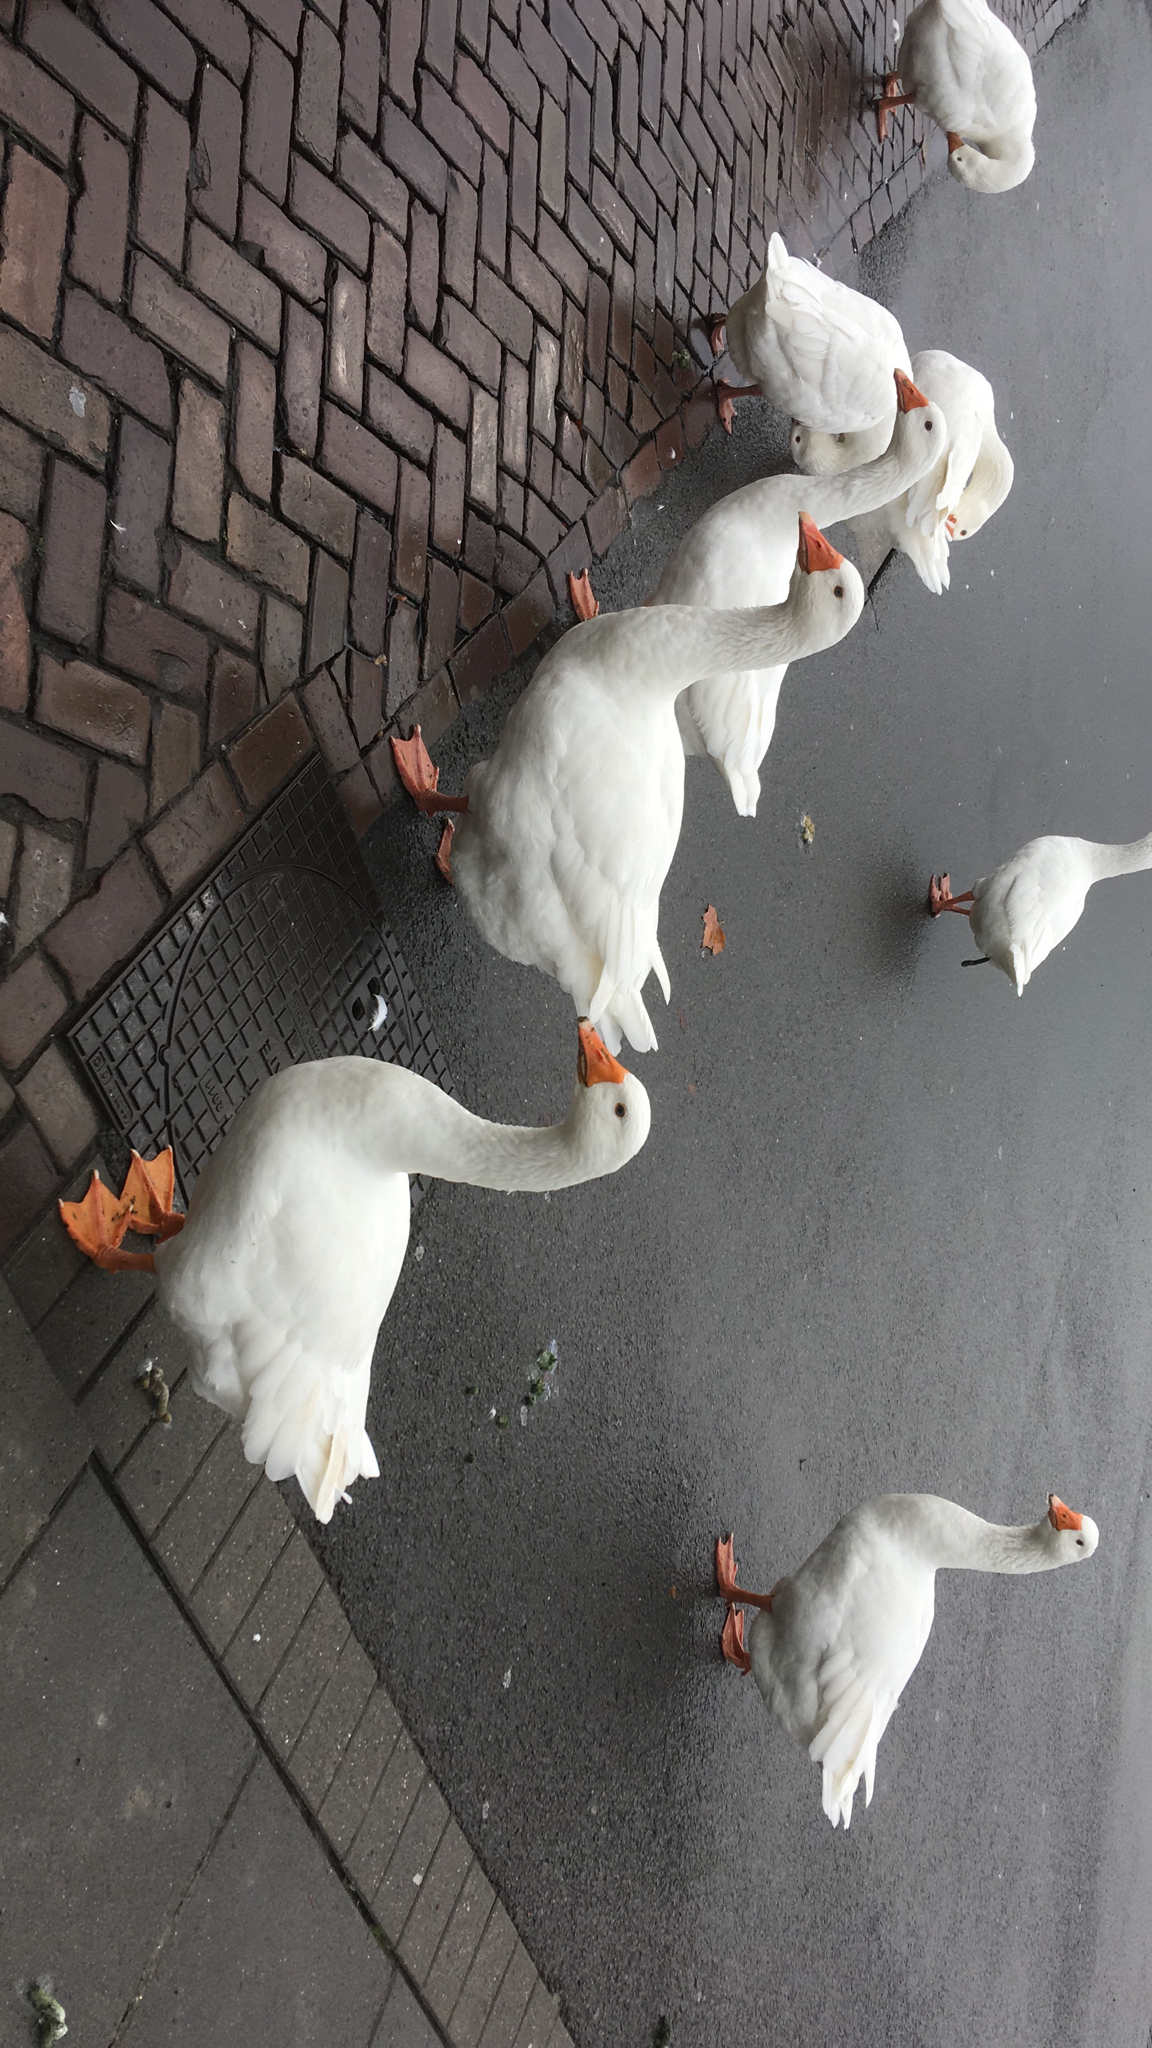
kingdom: Animalia
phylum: Chordata
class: Aves
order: Anseriformes
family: Anatidae
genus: Anser
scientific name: Anser anser
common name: Greylag goose
